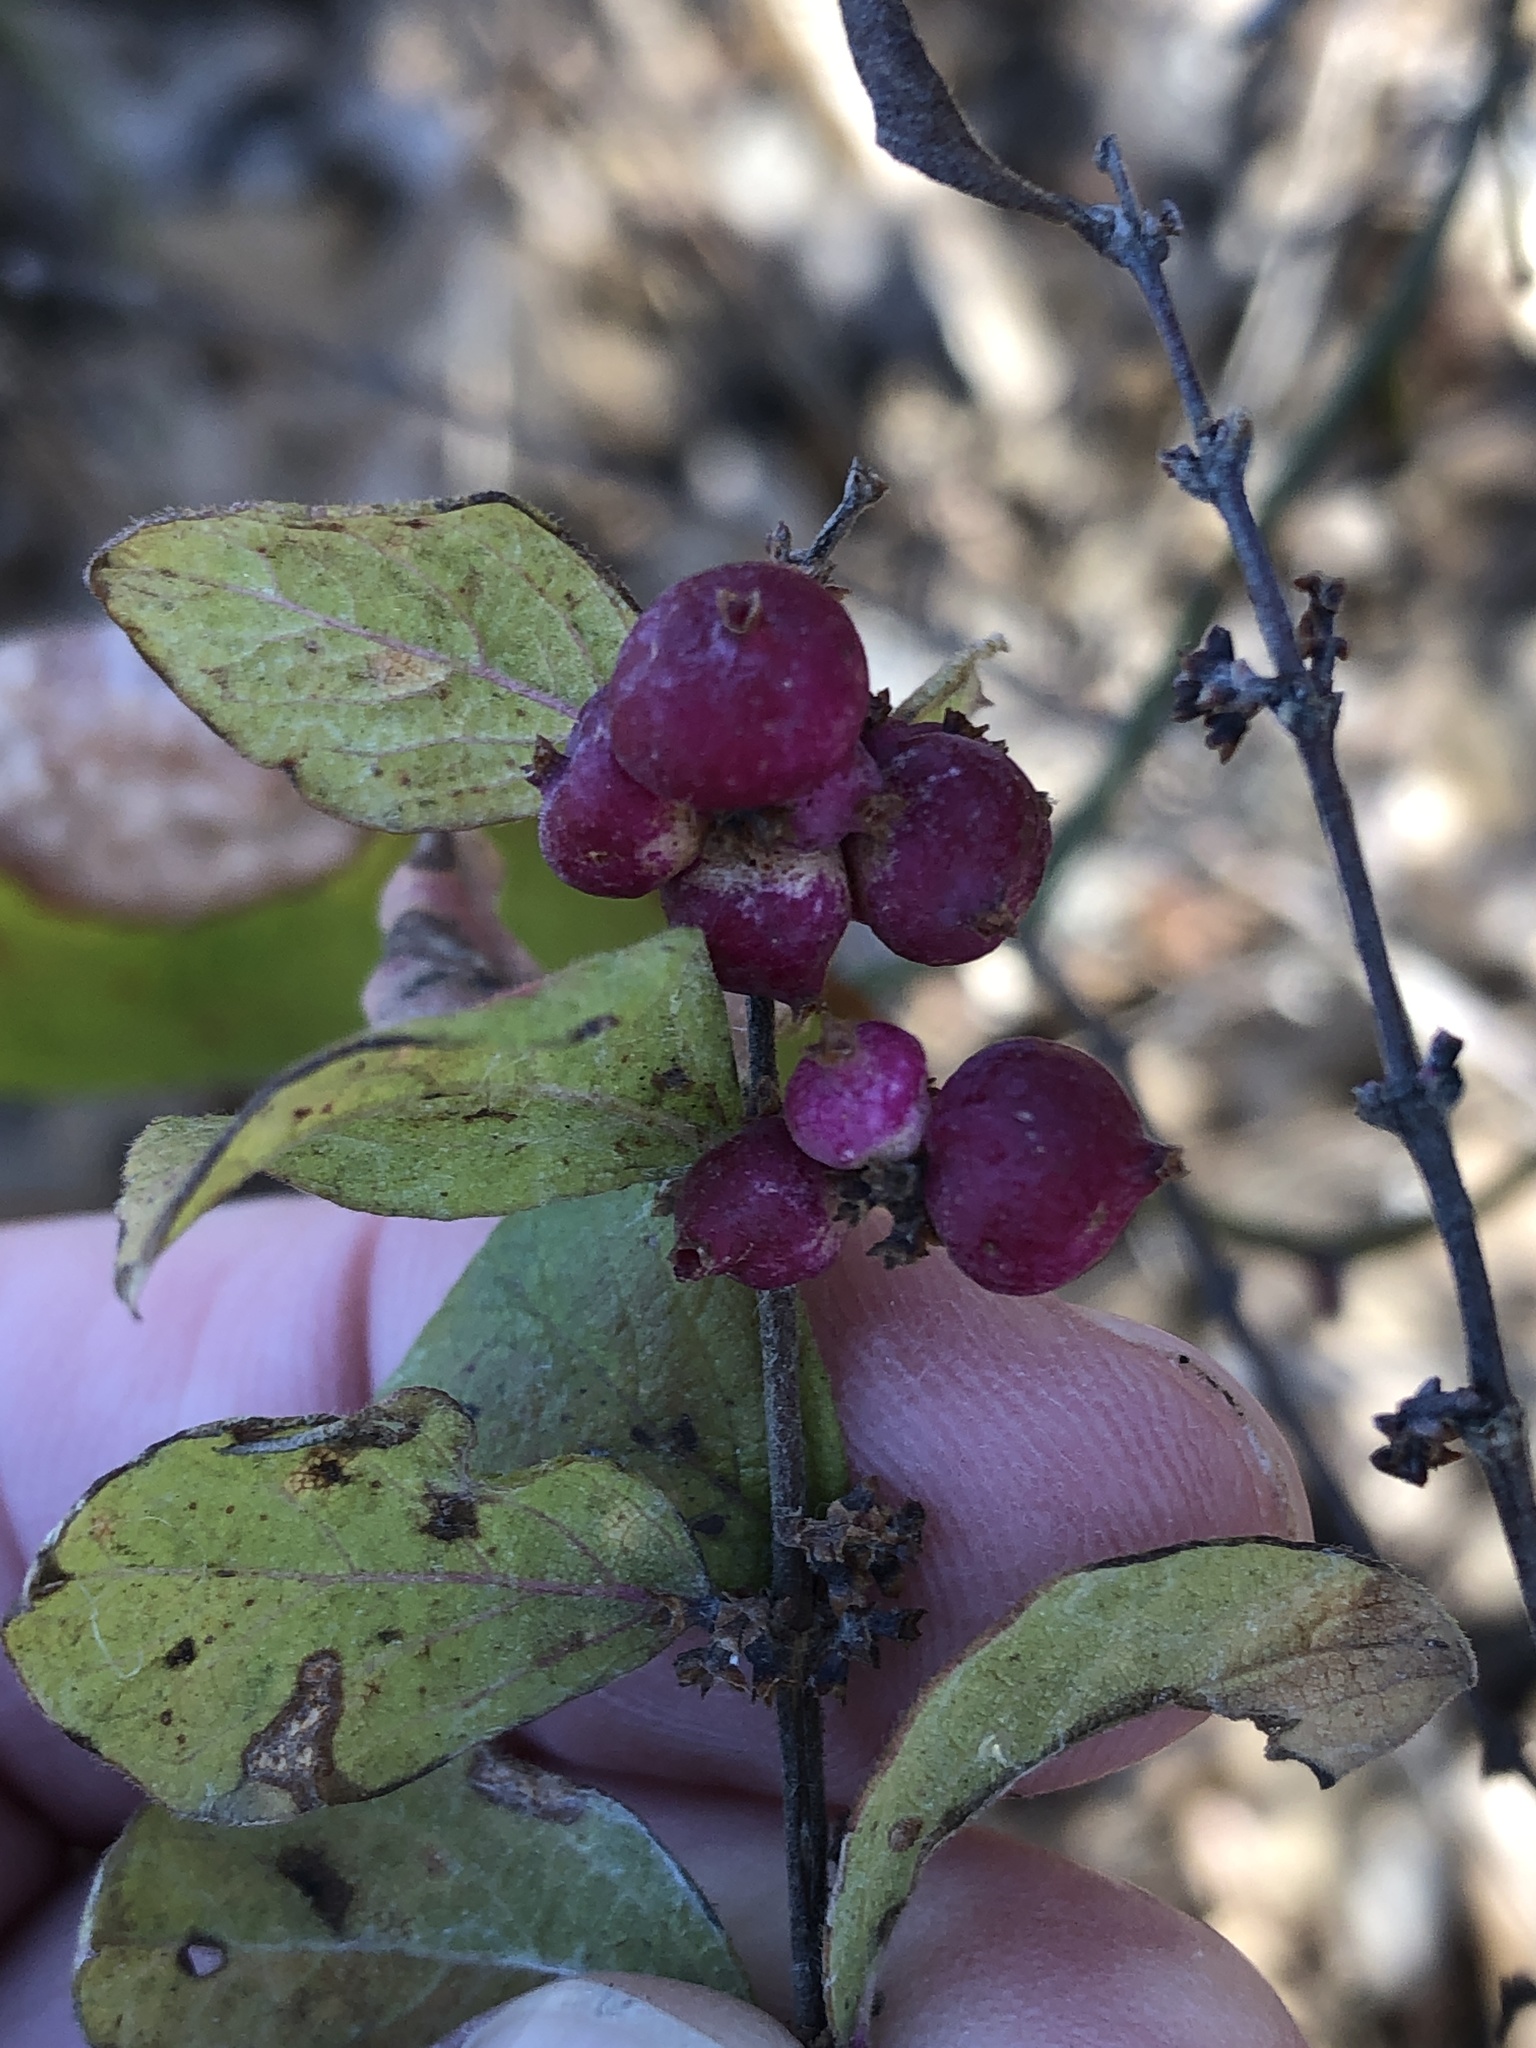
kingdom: Plantae
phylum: Tracheophyta
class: Magnoliopsida
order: Dipsacales
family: Caprifoliaceae
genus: Symphoricarpos
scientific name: Symphoricarpos orbiculatus
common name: Coralberry
